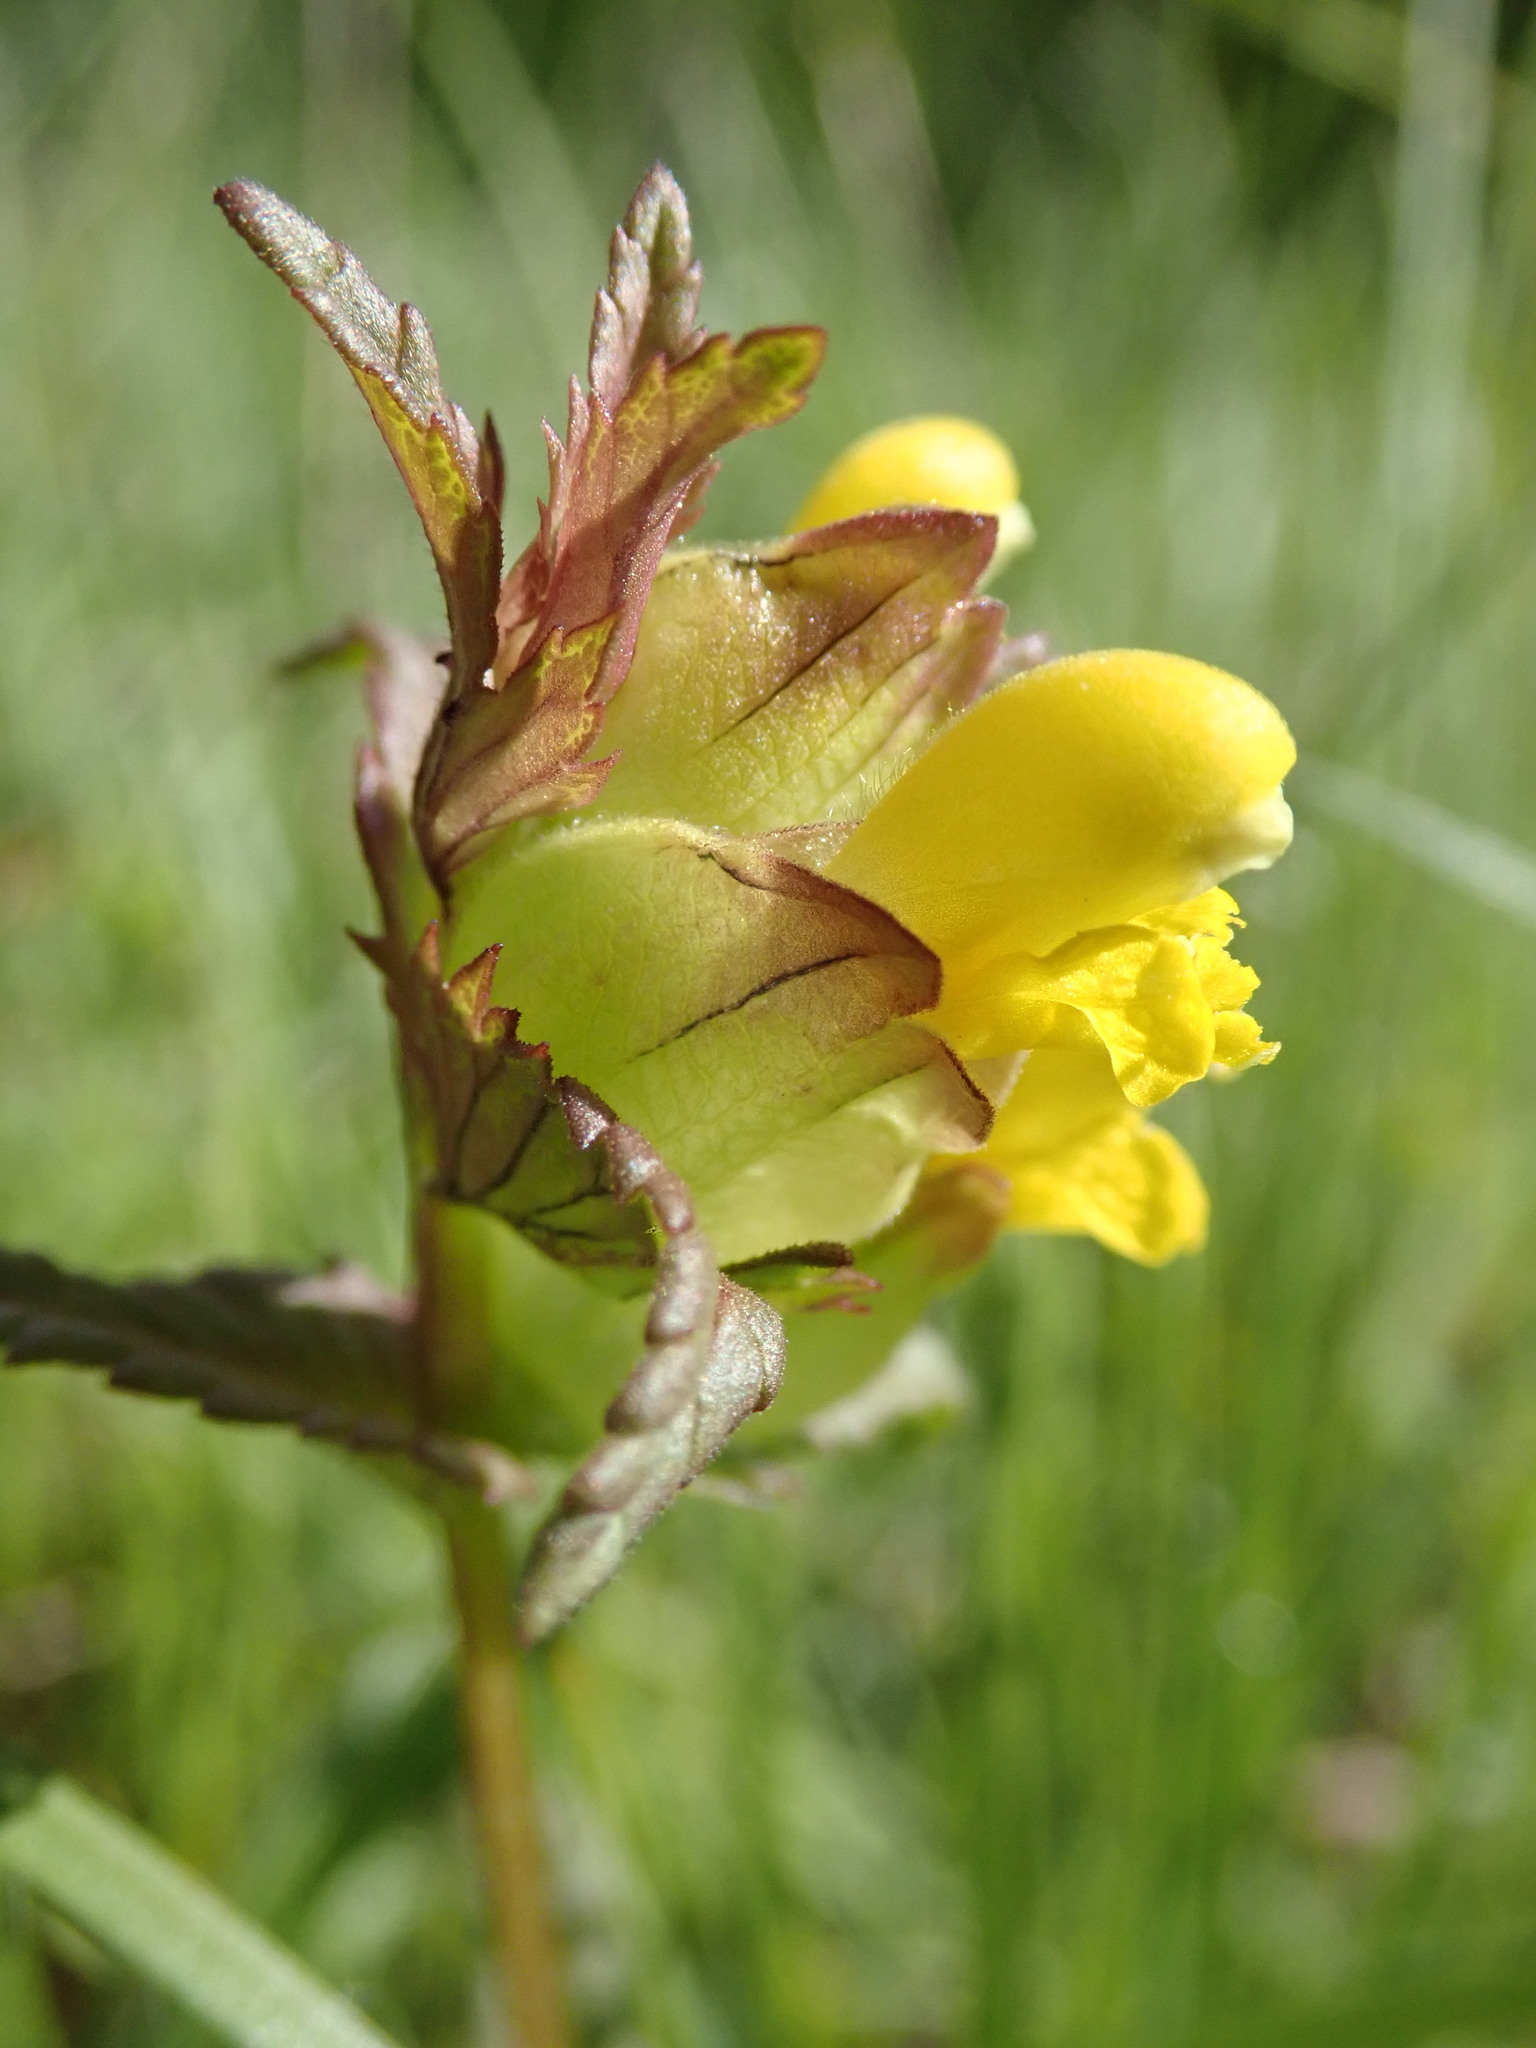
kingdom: Plantae
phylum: Tracheophyta
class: Magnoliopsida
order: Lamiales
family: Orobanchaceae
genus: Rhinanthus
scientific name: Rhinanthus minor
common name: Yellow-rattle
